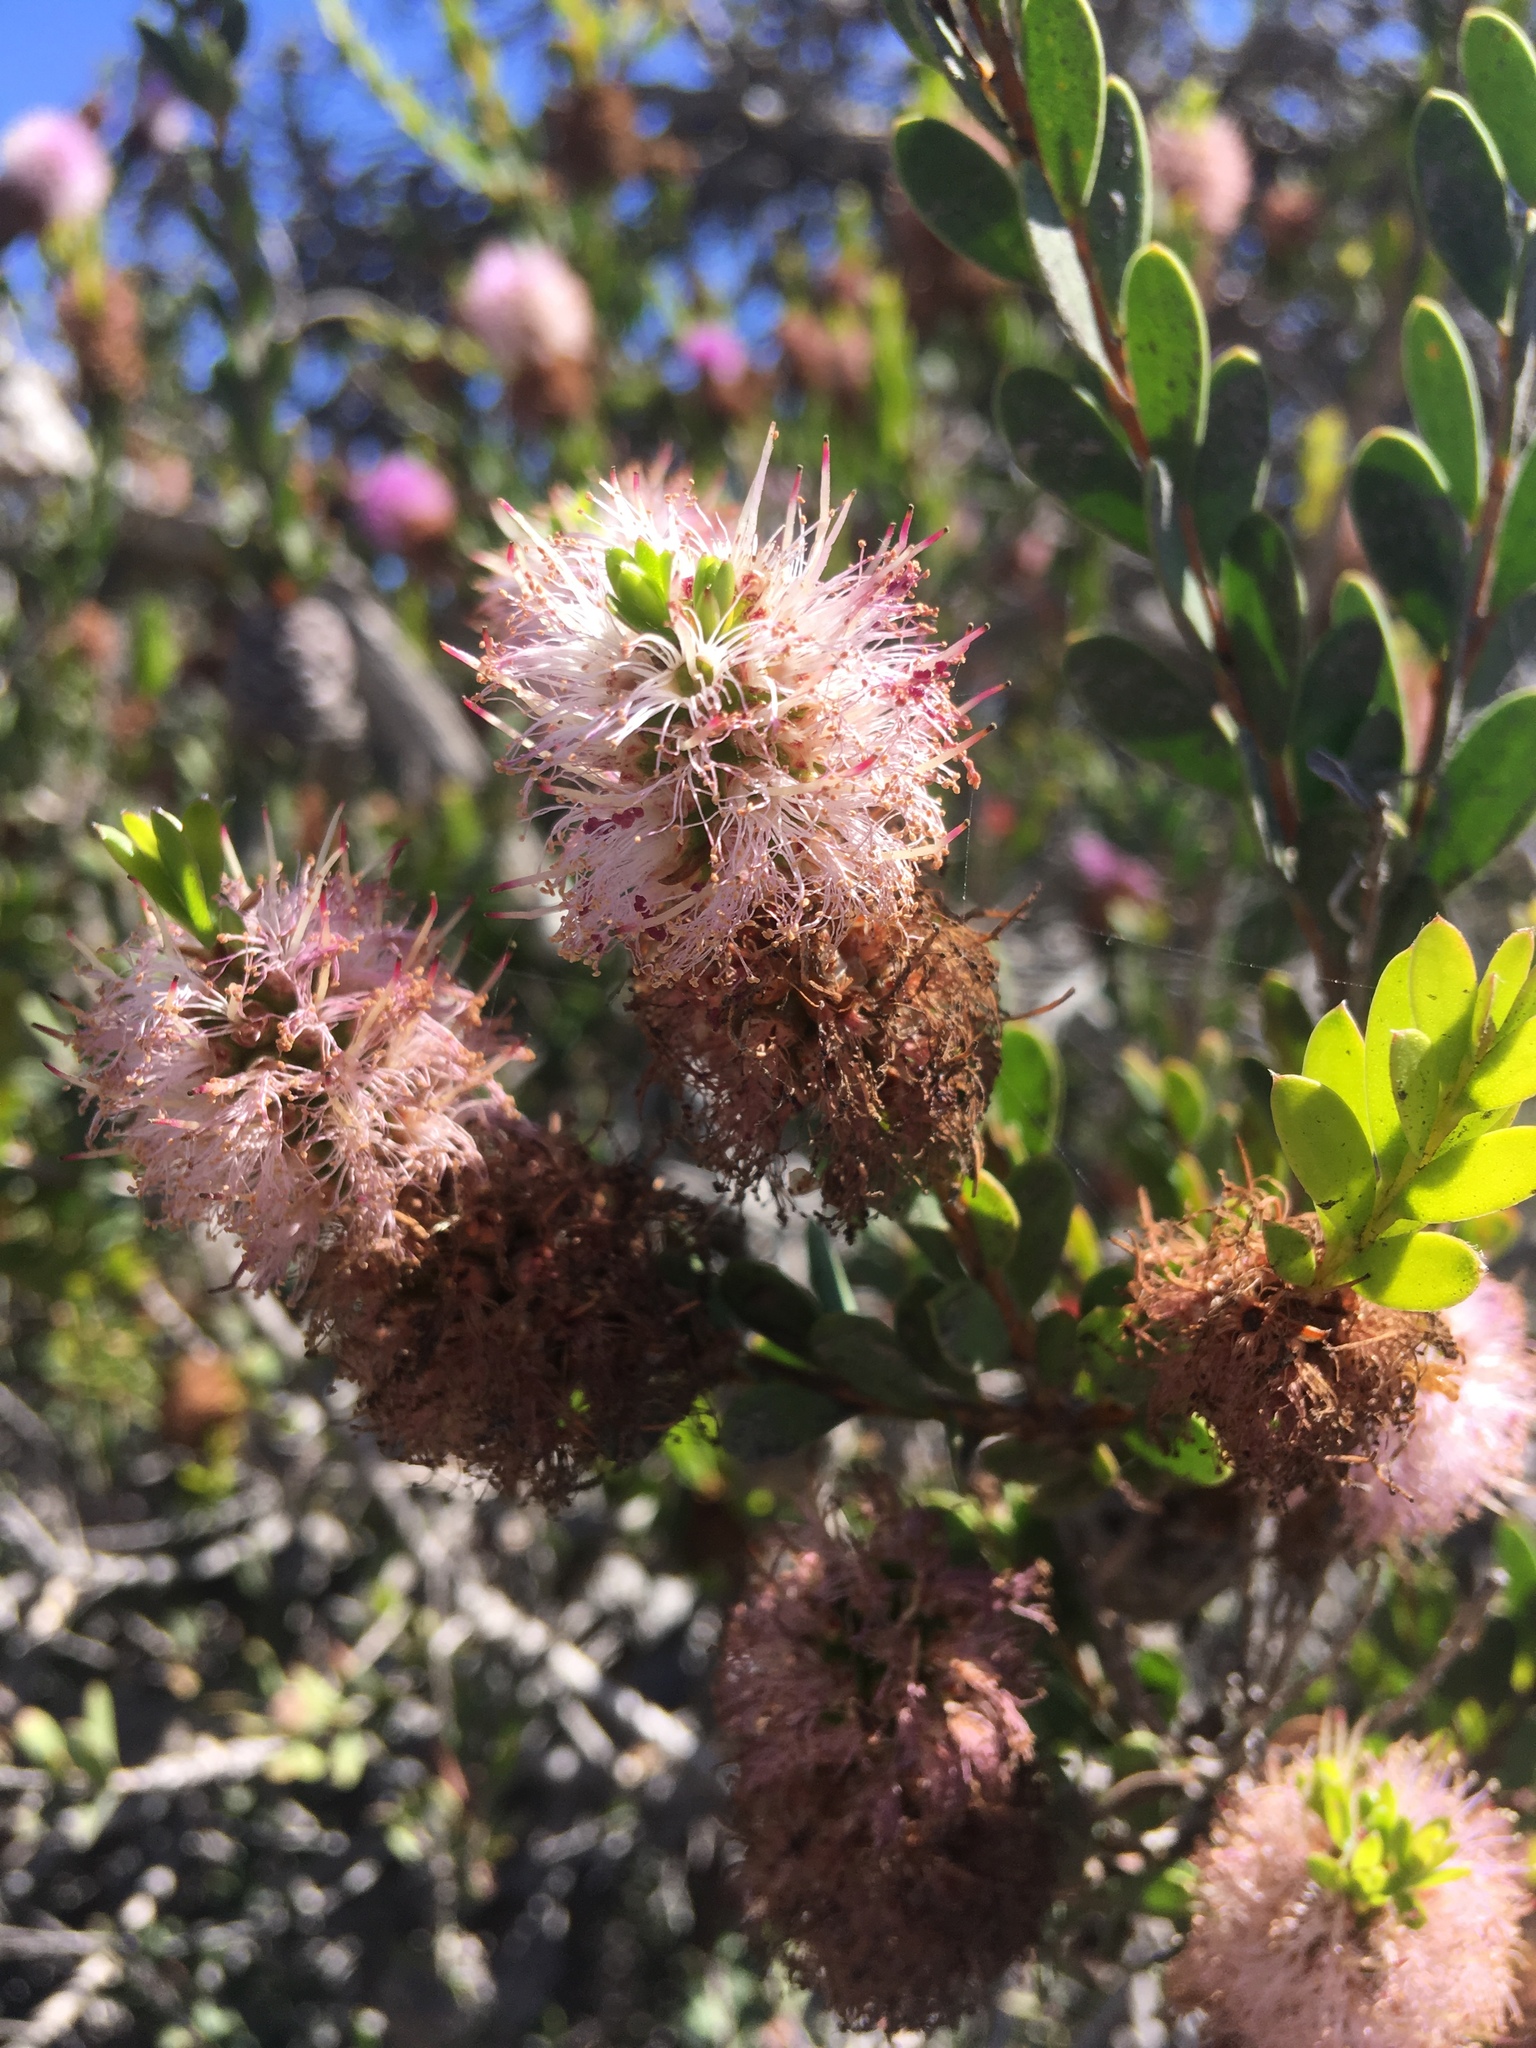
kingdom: Plantae
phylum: Tracheophyta
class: Magnoliopsida
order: Myrtales
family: Myrtaceae
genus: Melaleuca
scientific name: Melaleuca nesophila
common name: Mauve honey myrtle
